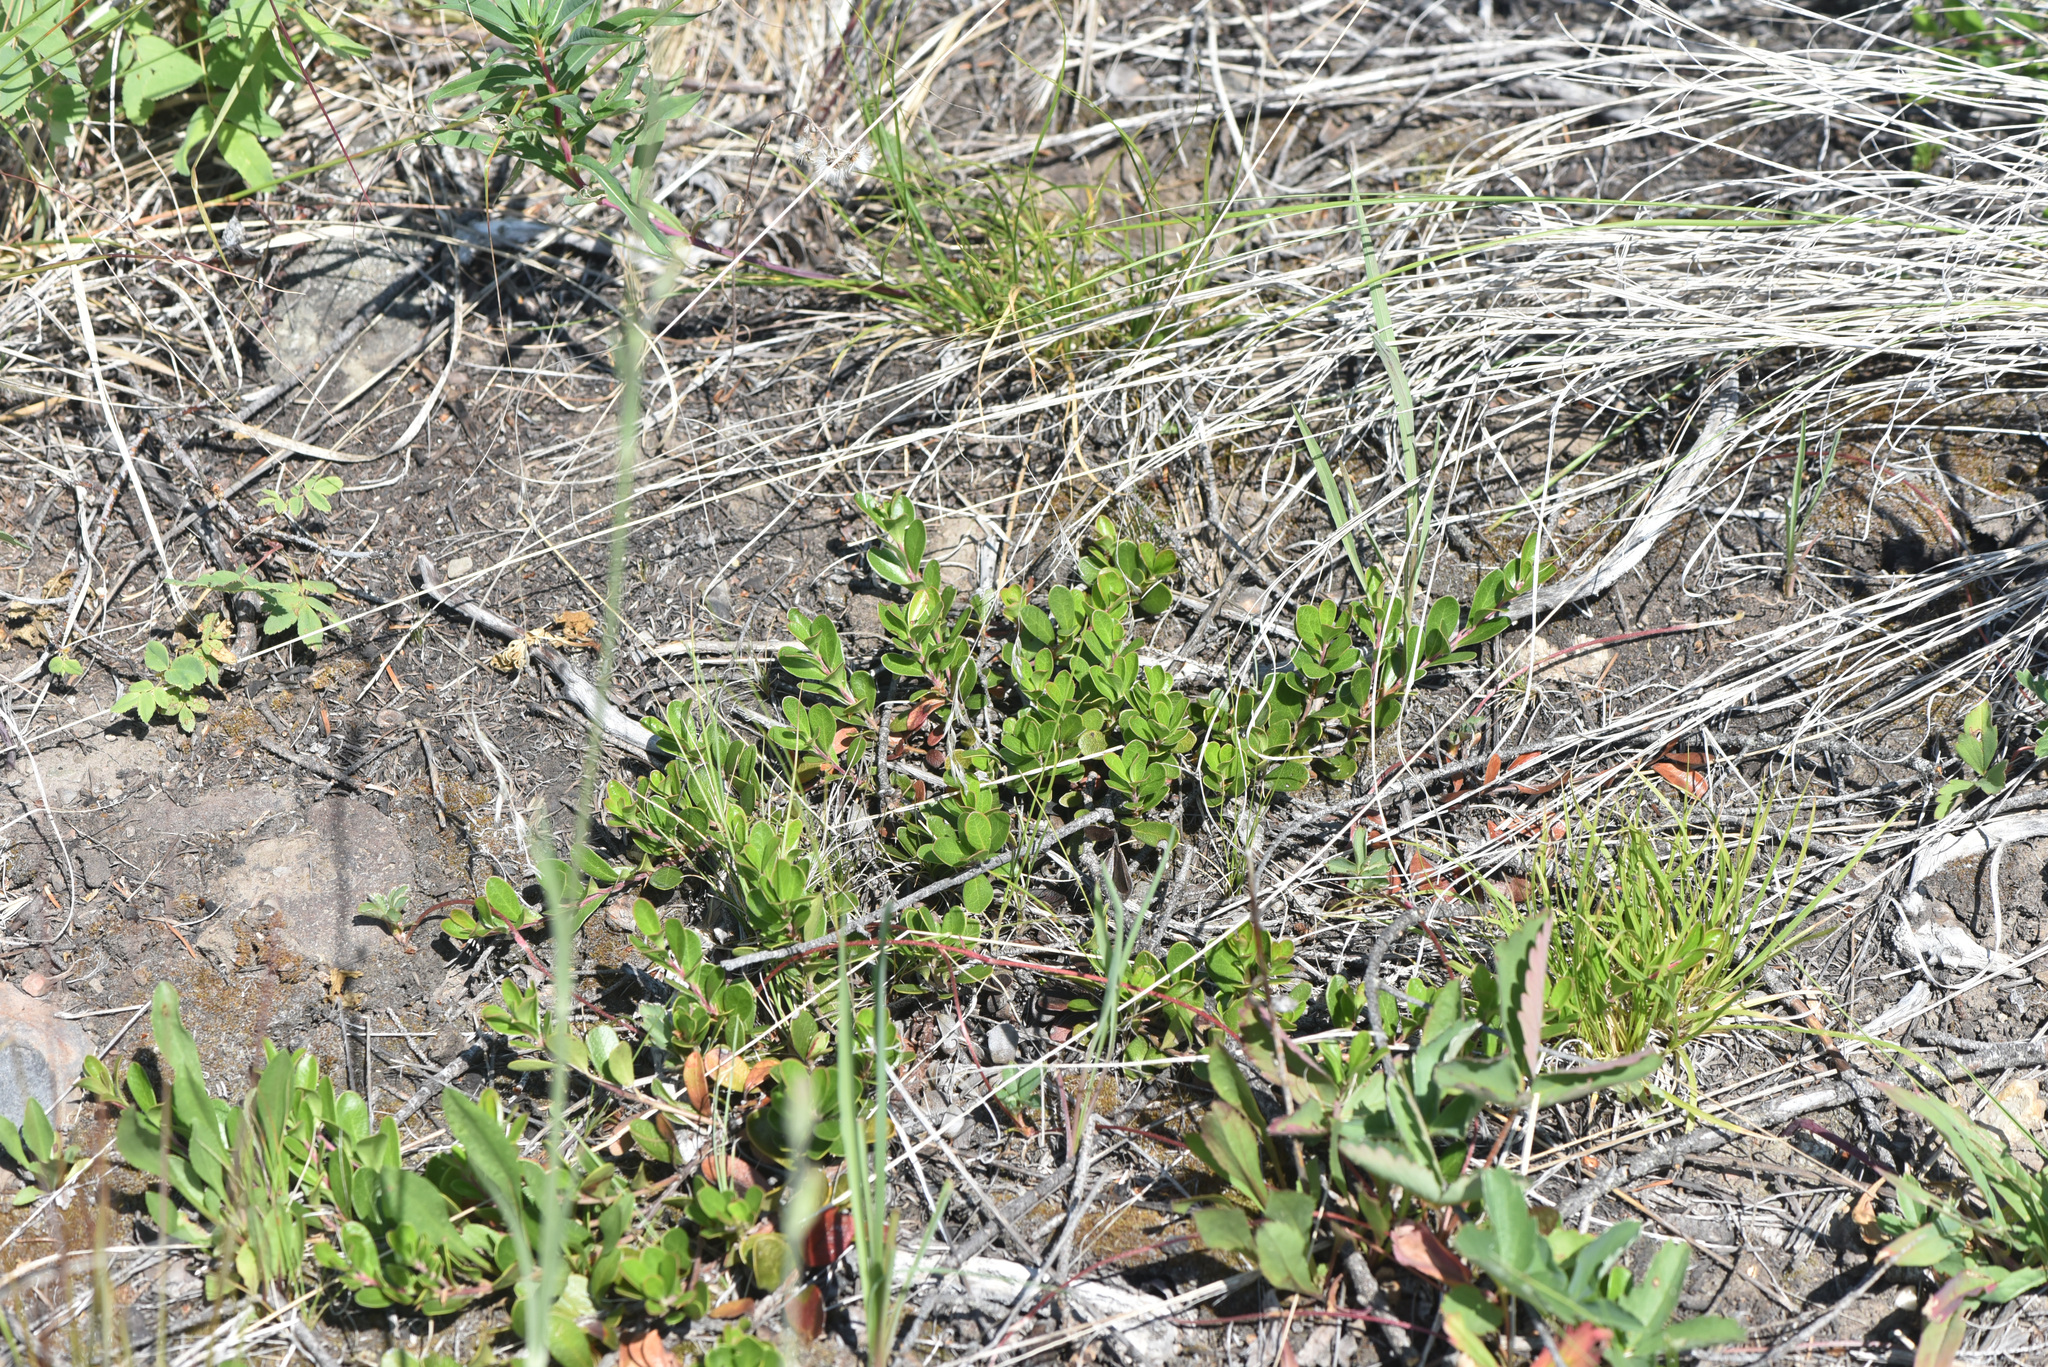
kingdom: Plantae
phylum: Tracheophyta
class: Magnoliopsida
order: Ericales
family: Ericaceae
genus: Arctostaphylos
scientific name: Arctostaphylos uva-ursi
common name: Bearberry
